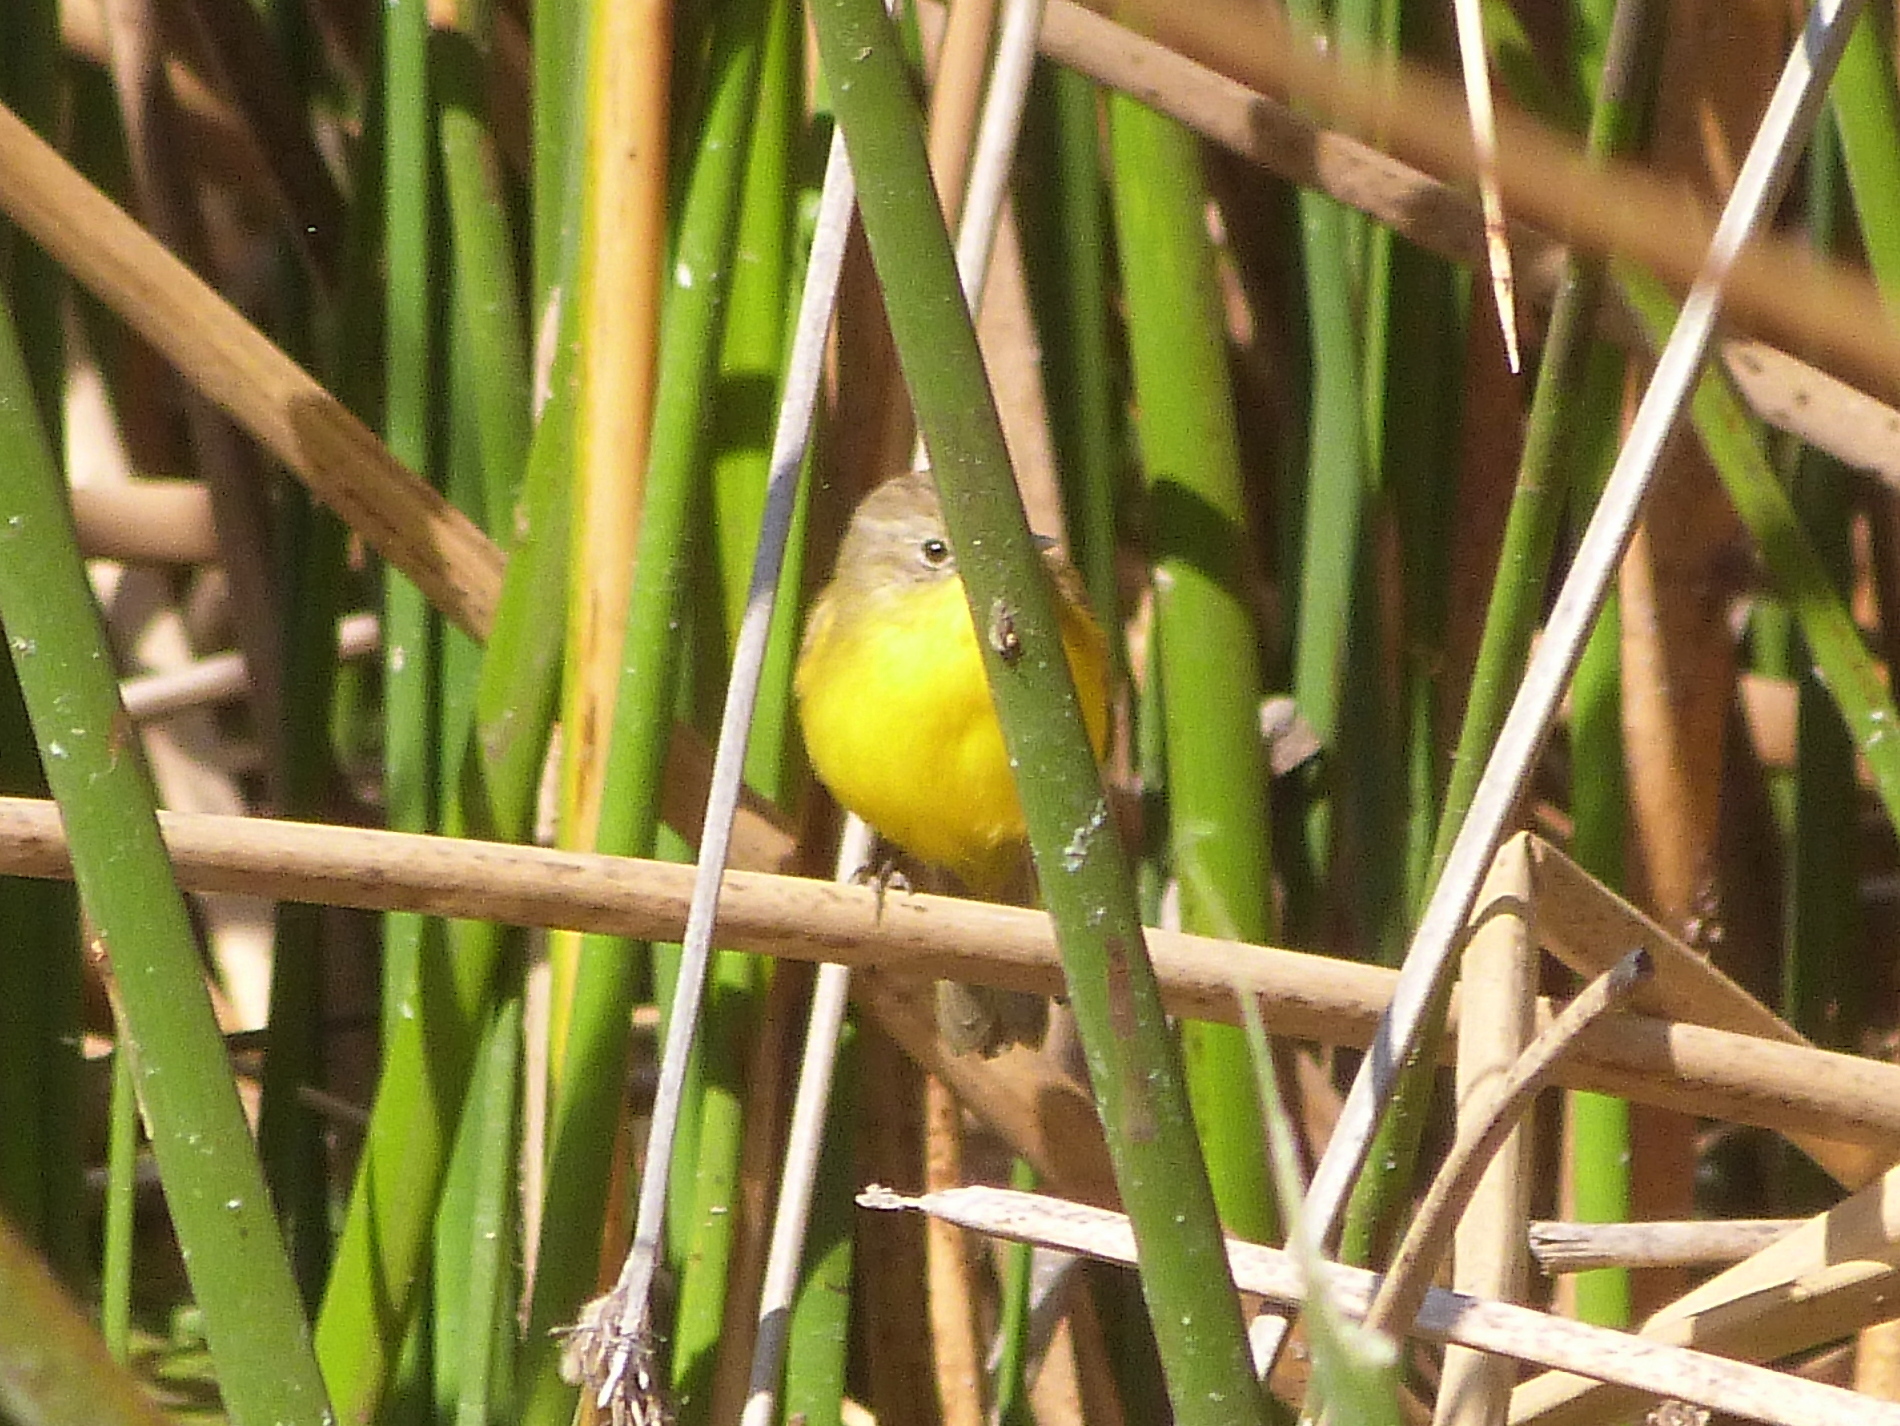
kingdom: Animalia
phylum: Chordata
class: Aves
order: Passeriformes
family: Tyrannidae
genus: Pseudocolopteryx
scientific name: Pseudocolopteryx dinelliana
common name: Dinelli's doradito
